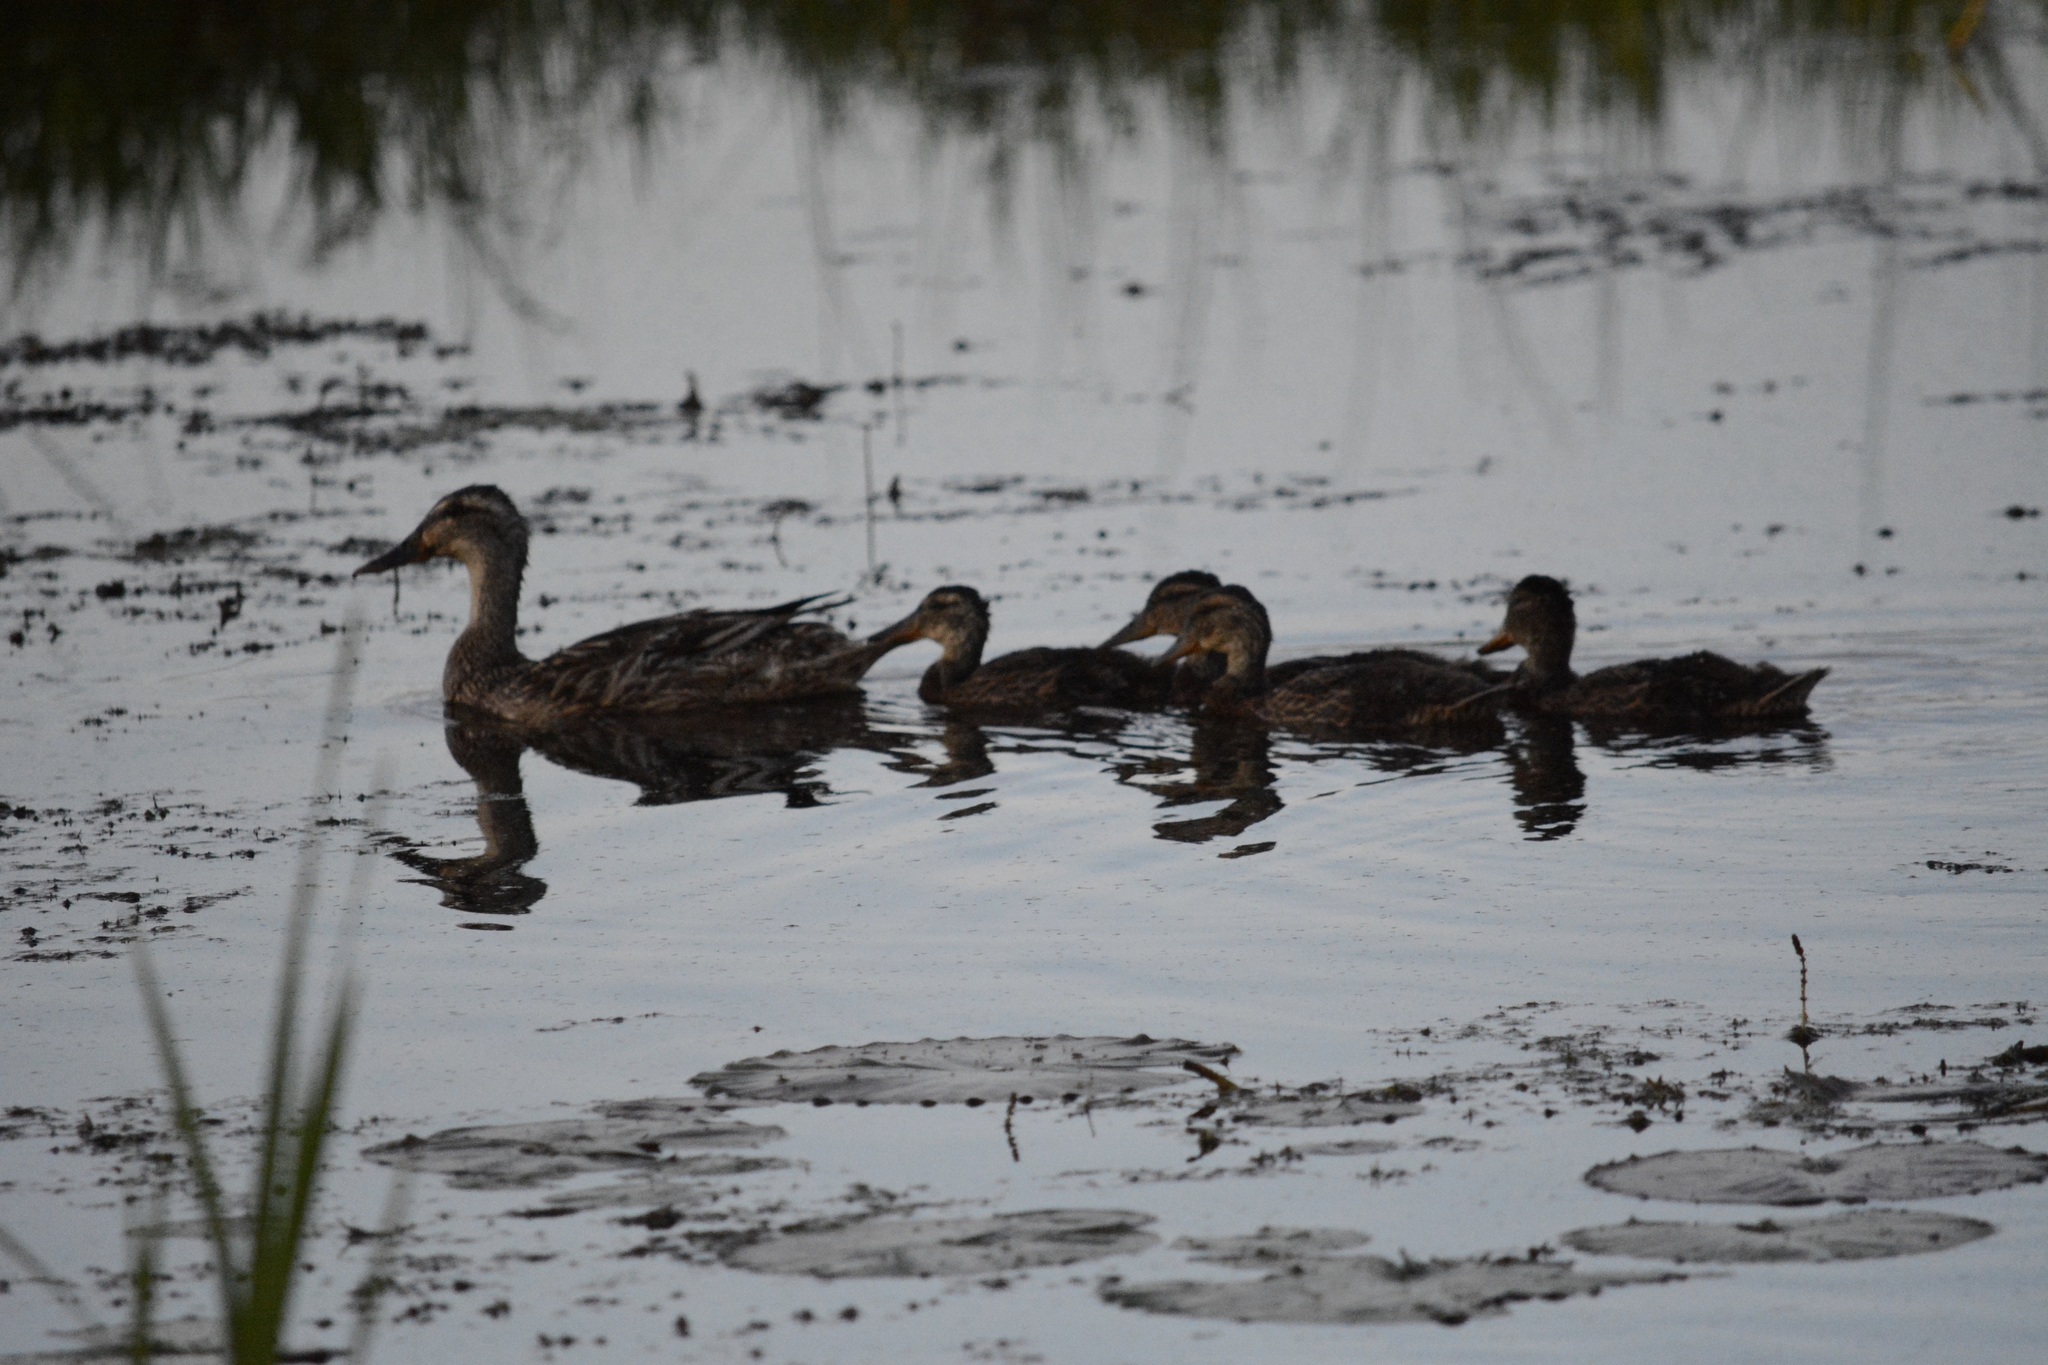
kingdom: Animalia
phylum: Chordata
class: Aves
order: Anseriformes
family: Anatidae
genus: Anas
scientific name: Anas platyrhynchos
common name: Mallard
